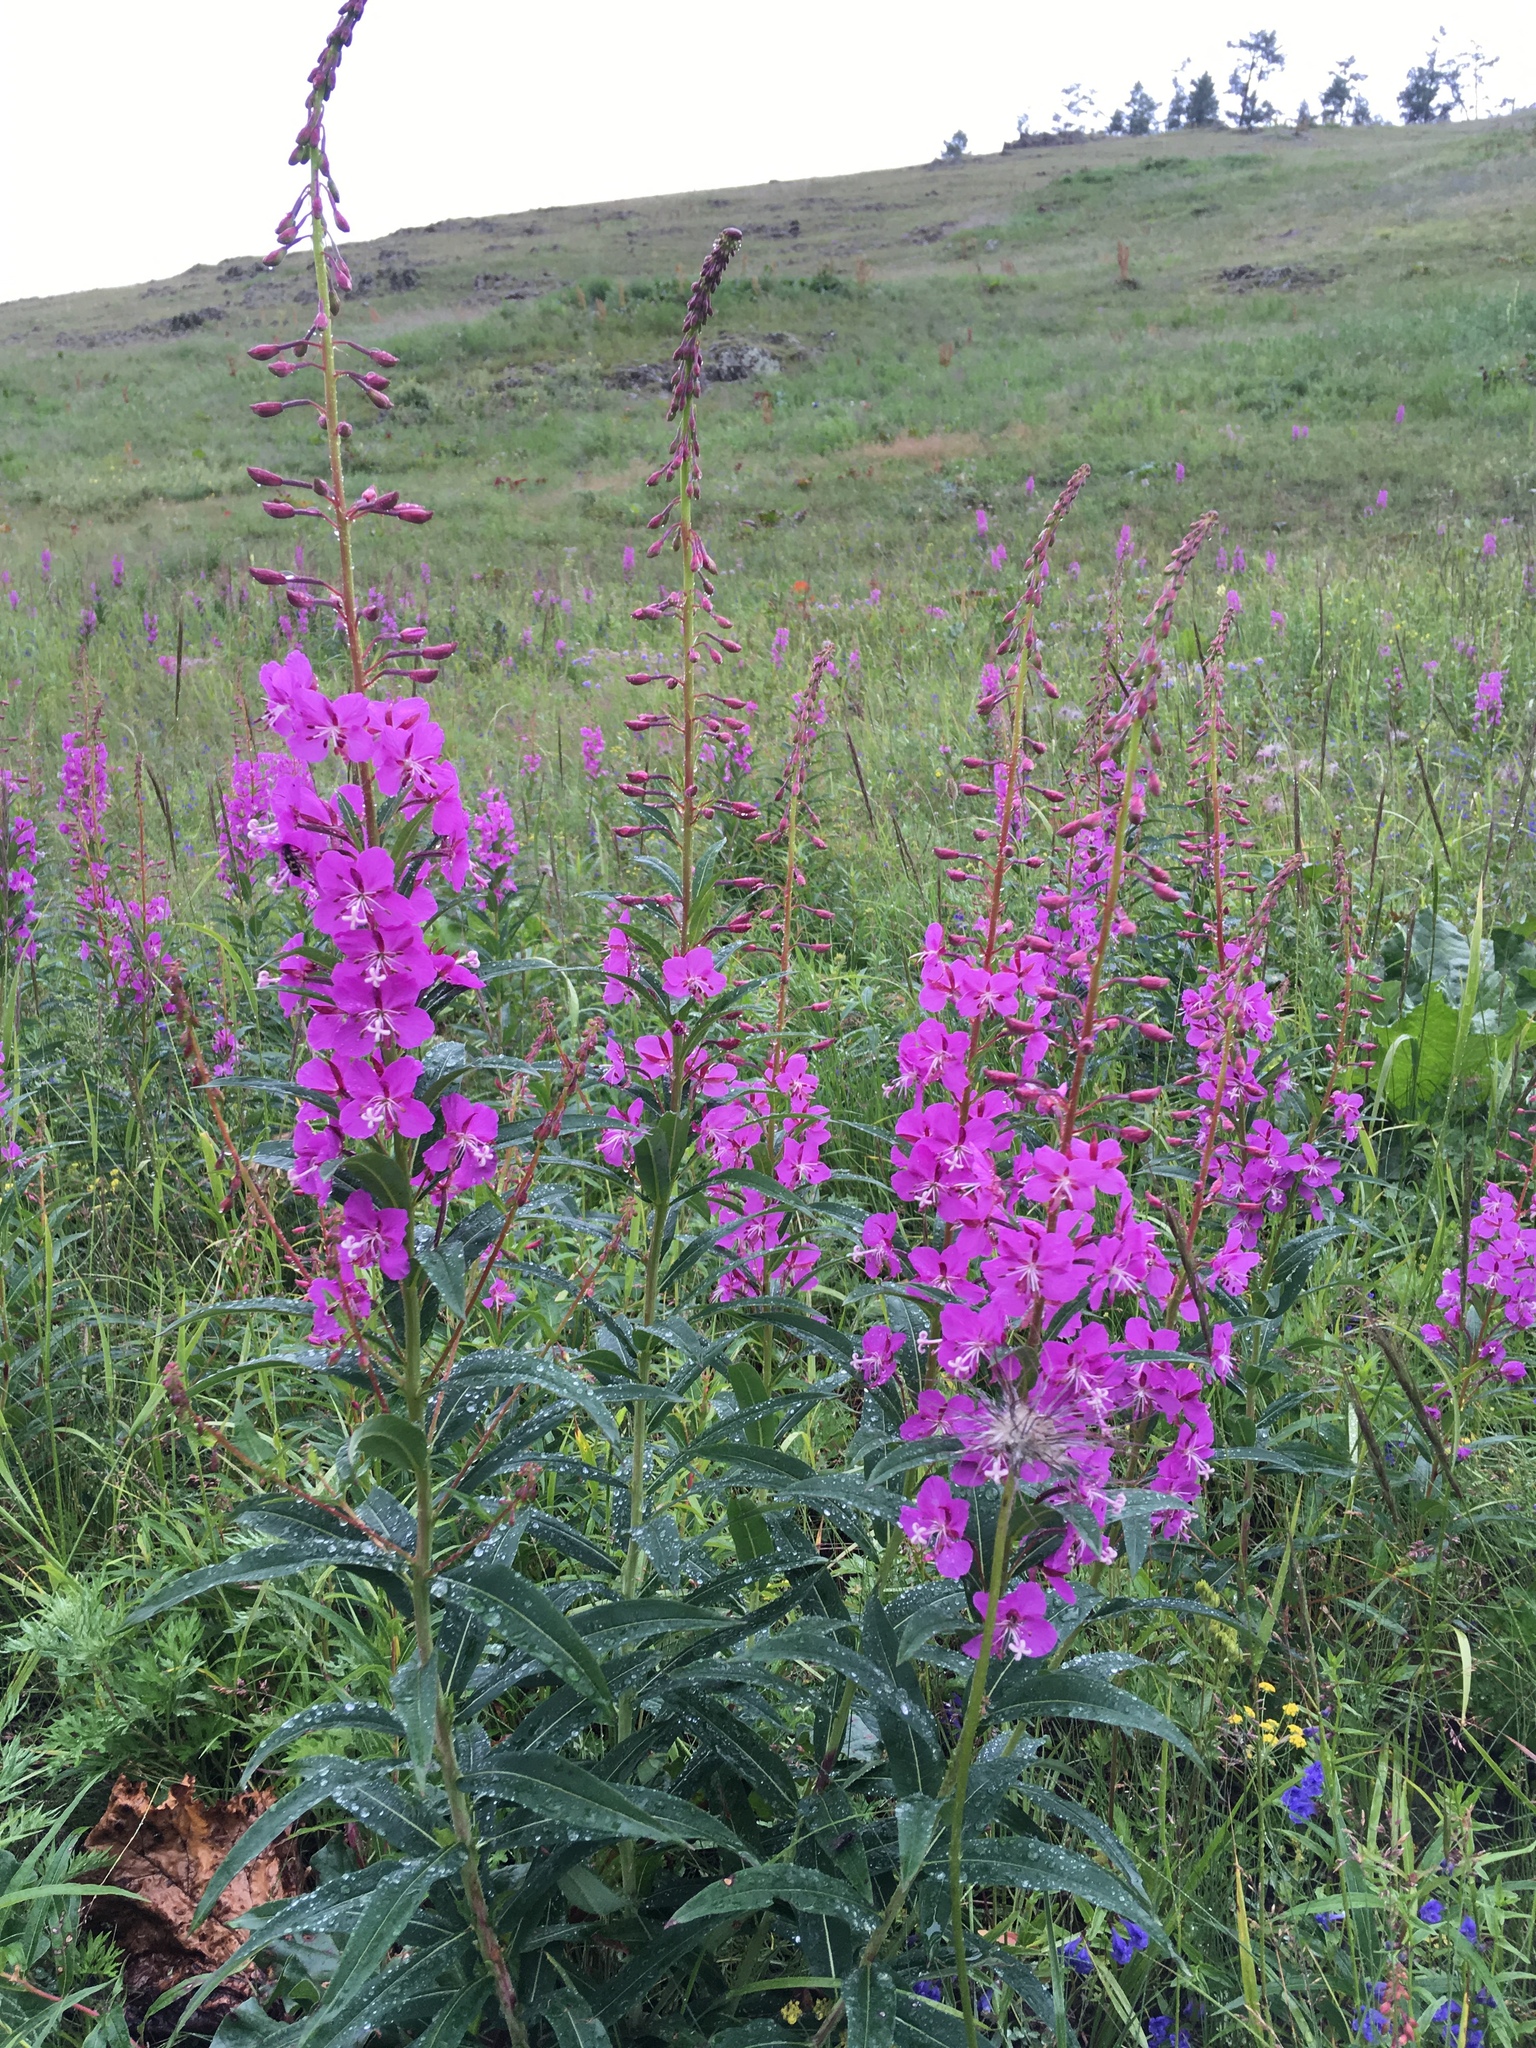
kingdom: Plantae
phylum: Tracheophyta
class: Magnoliopsida
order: Myrtales
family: Onagraceae
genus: Chamaenerion
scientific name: Chamaenerion angustifolium
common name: Fireweed
